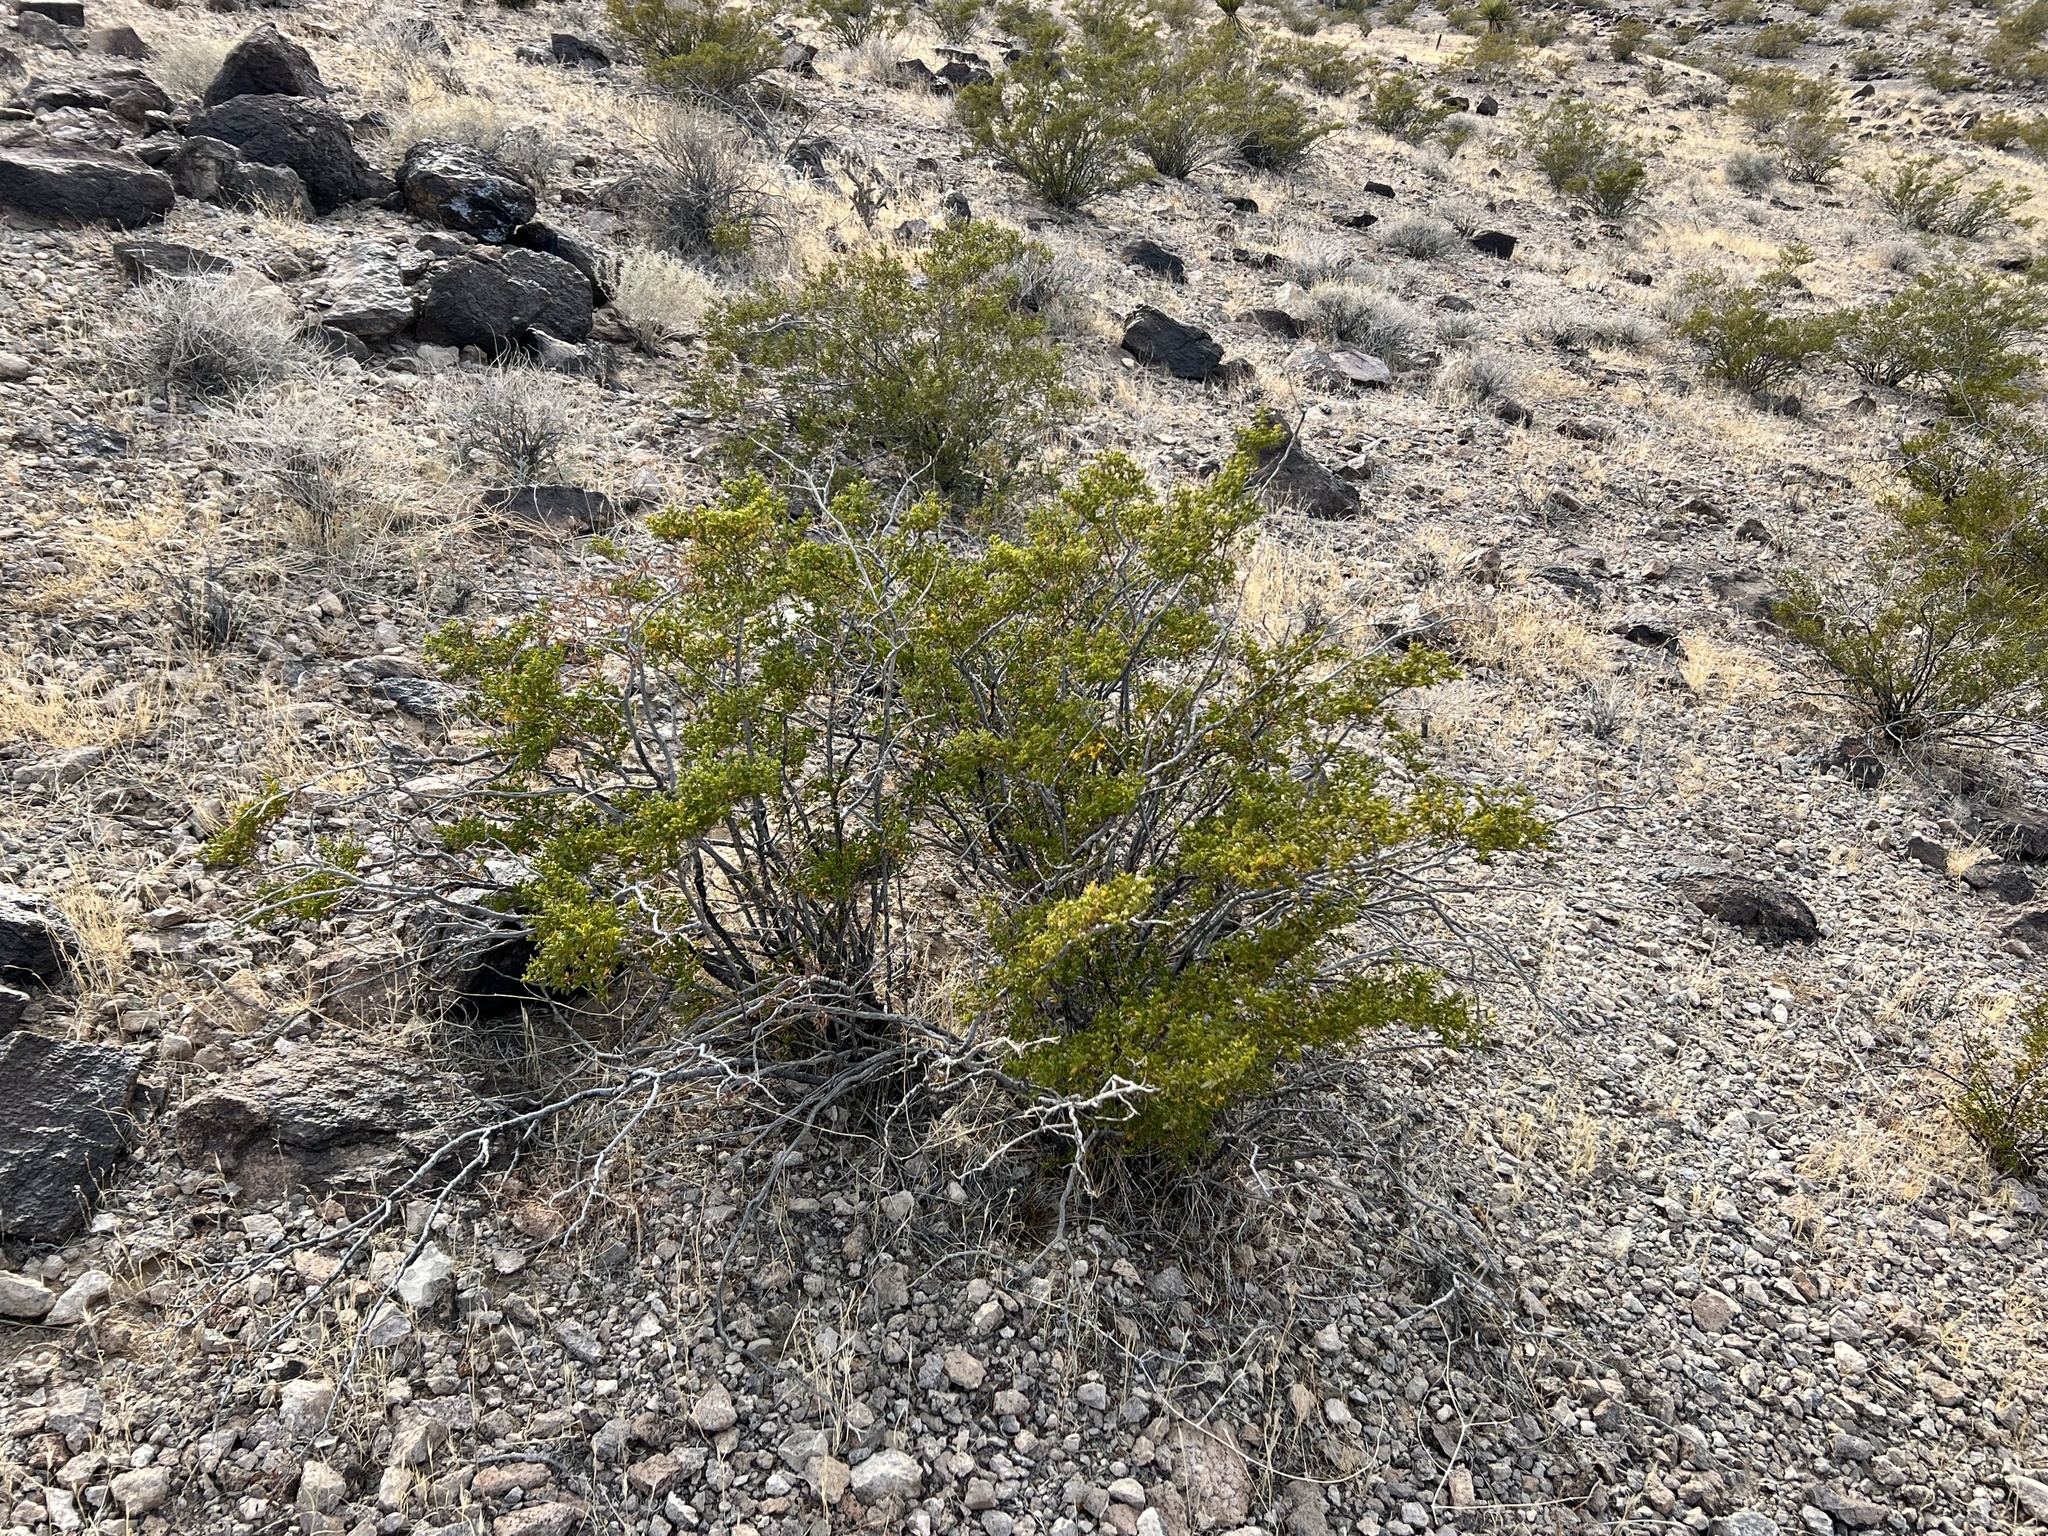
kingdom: Plantae
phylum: Tracheophyta
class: Magnoliopsida
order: Zygophyllales
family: Zygophyllaceae
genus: Larrea
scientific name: Larrea tridentata
